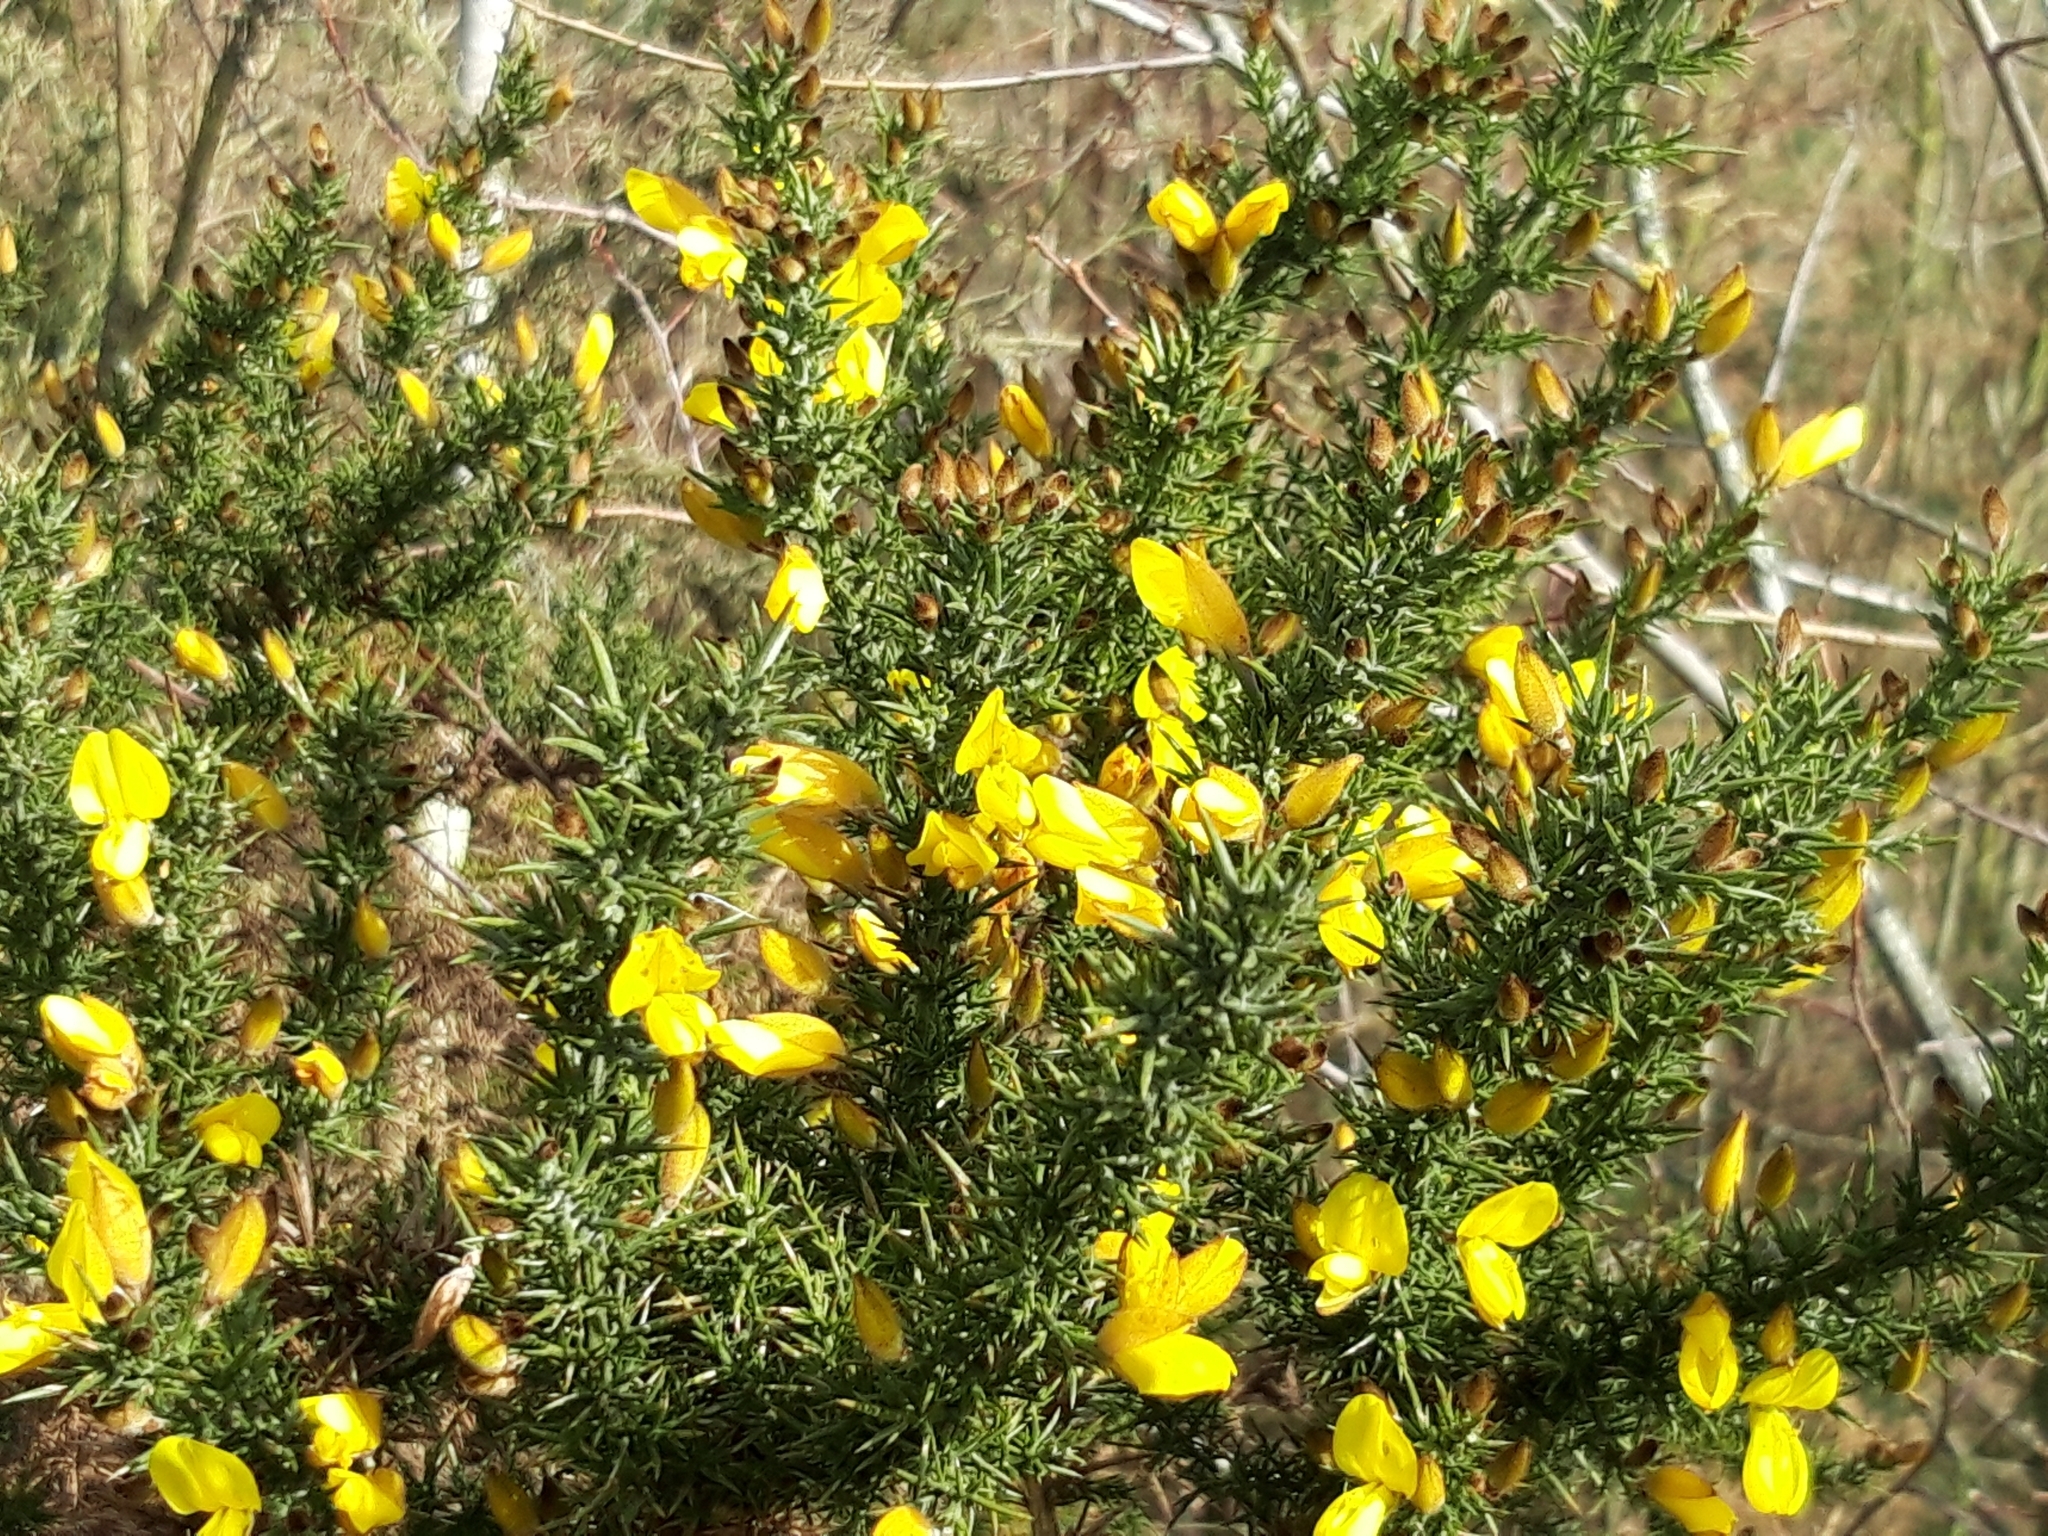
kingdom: Plantae
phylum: Tracheophyta
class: Magnoliopsida
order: Fabales
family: Fabaceae
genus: Ulex
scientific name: Ulex europaeus
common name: Common gorse
